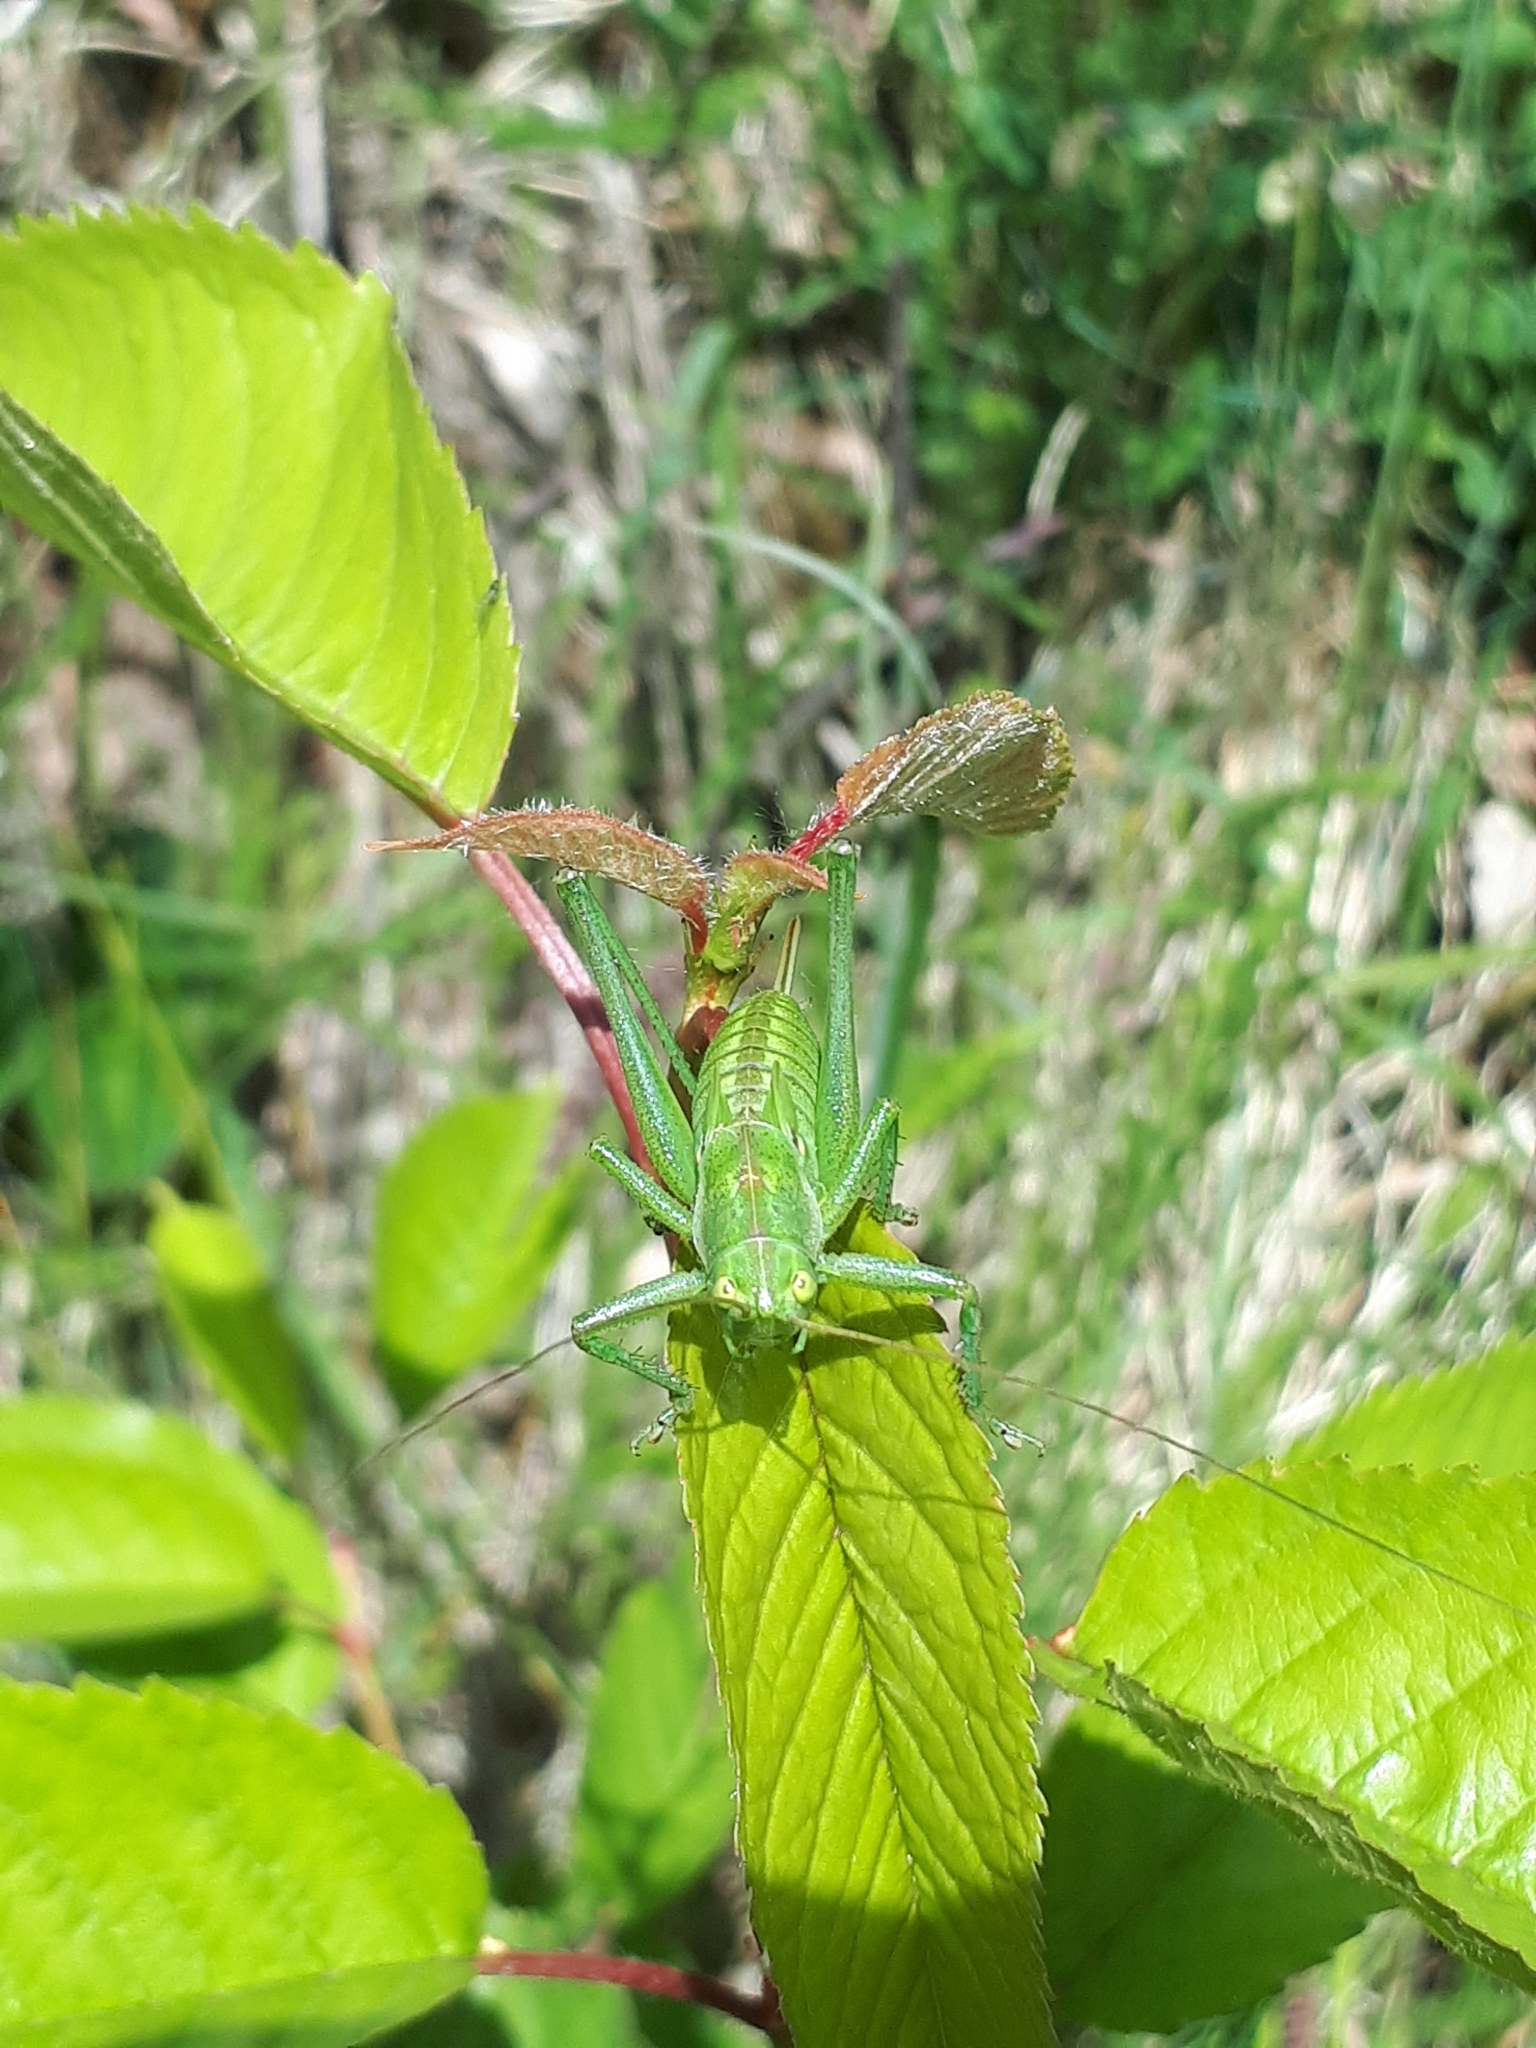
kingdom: Animalia
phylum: Arthropoda
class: Insecta
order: Orthoptera
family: Tettigoniidae
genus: Tettigonia
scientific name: Tettigonia viridissima
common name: Great green bush-cricket
